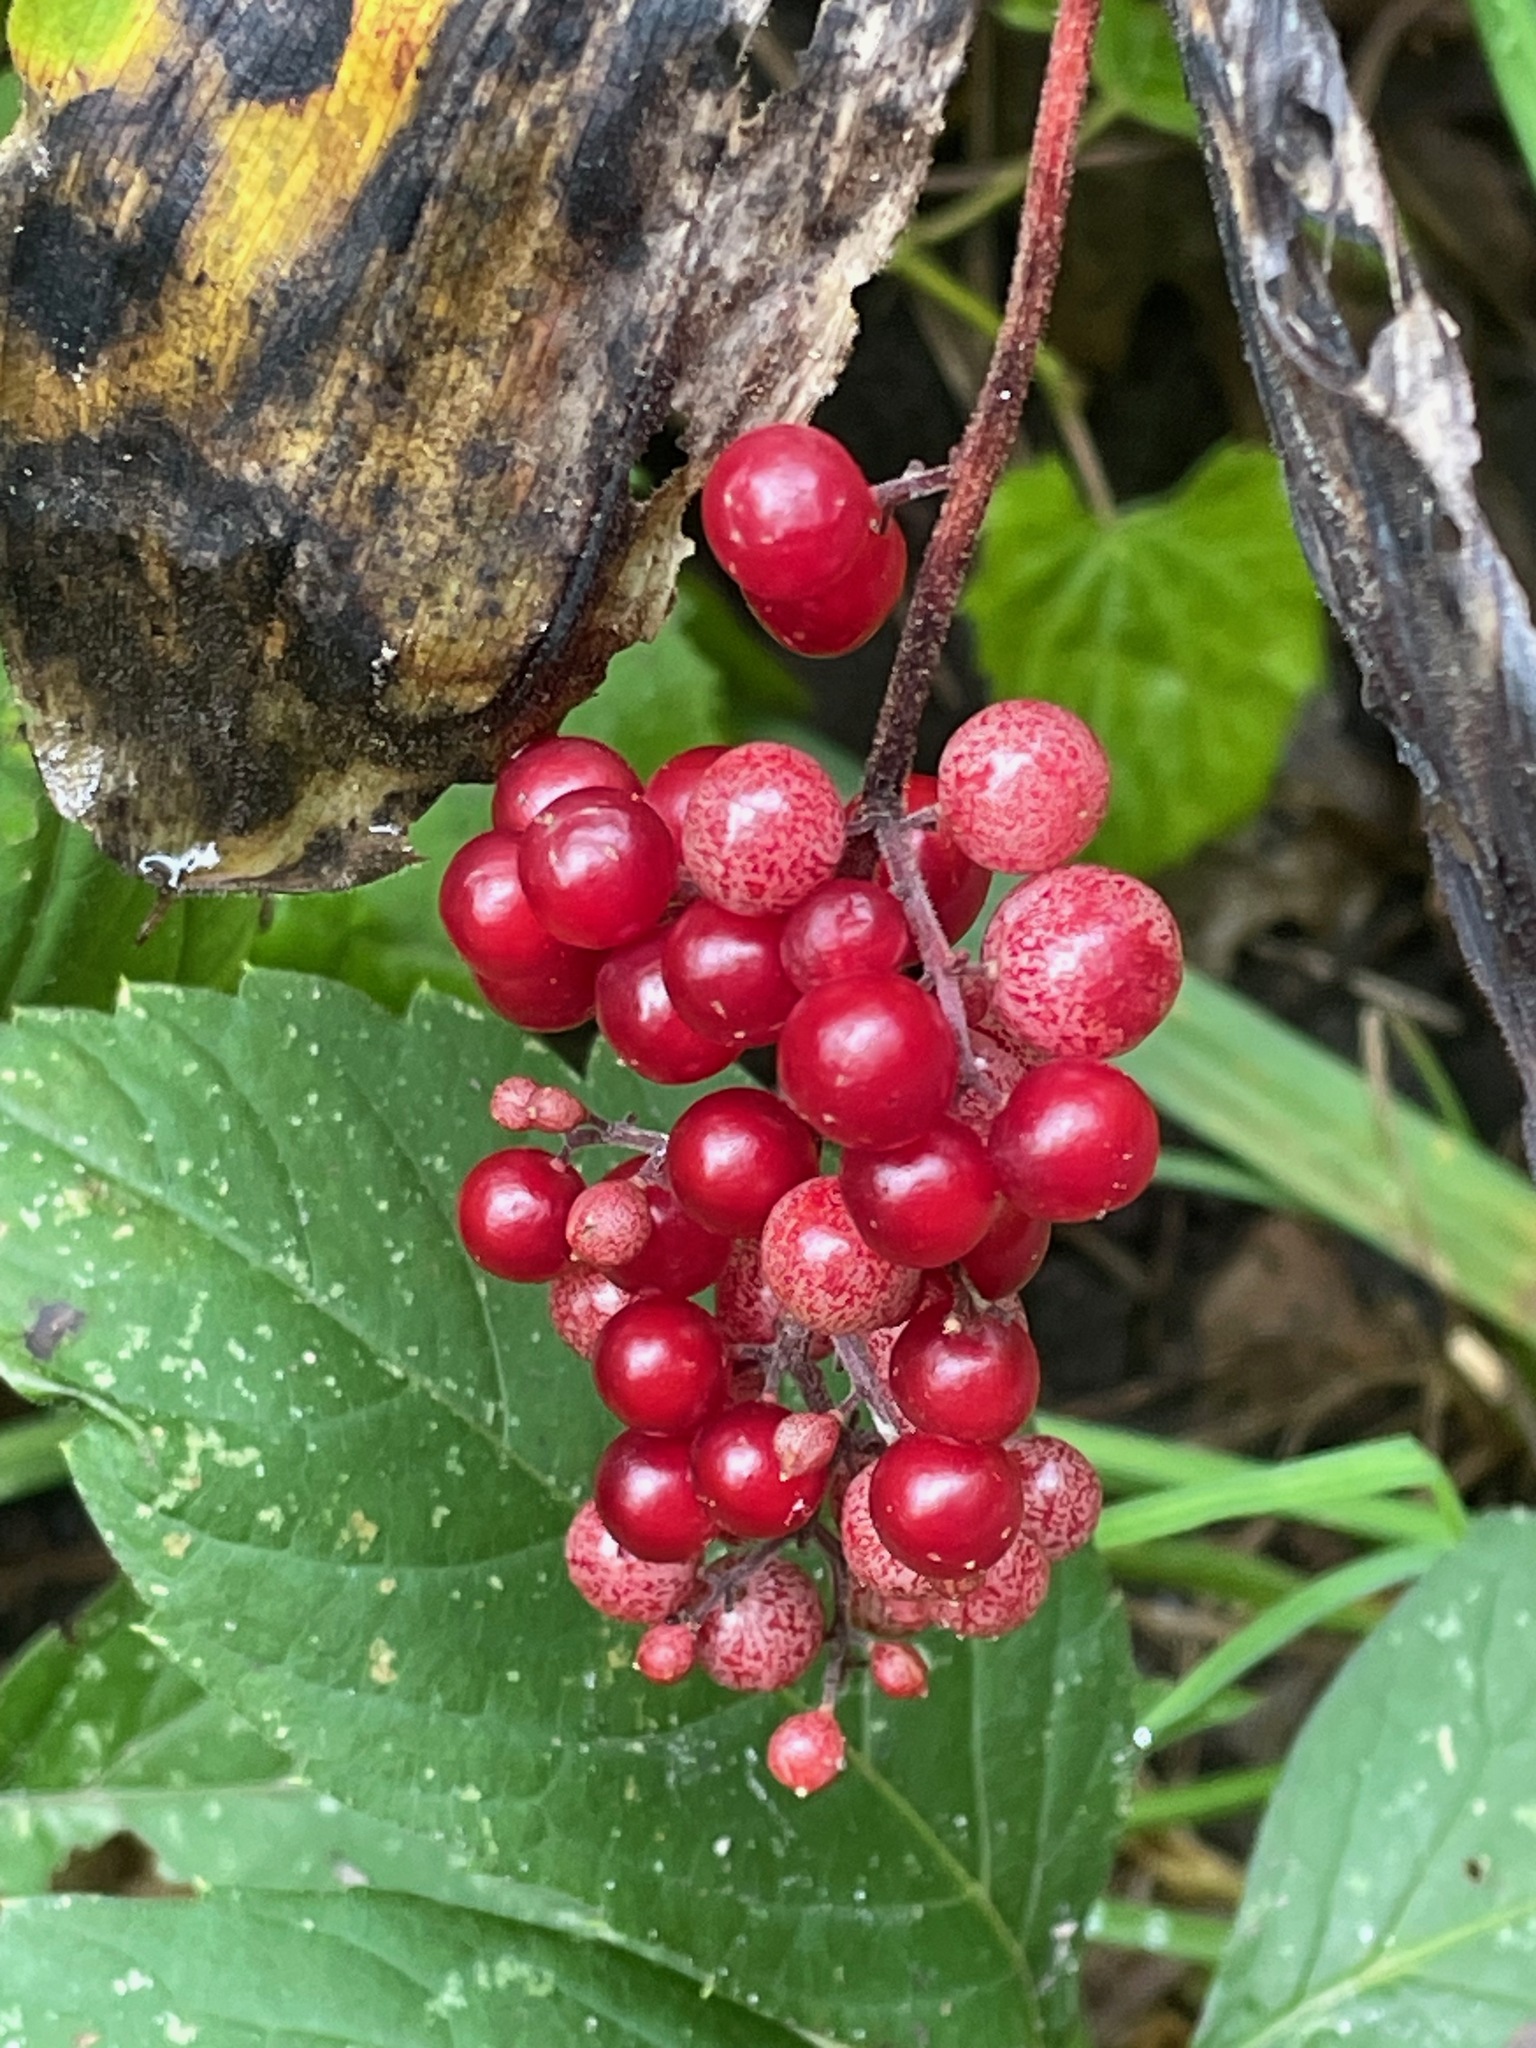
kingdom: Plantae
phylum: Tracheophyta
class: Liliopsida
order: Asparagales
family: Asparagaceae
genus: Maianthemum
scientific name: Maianthemum racemosum
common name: False spikenard
